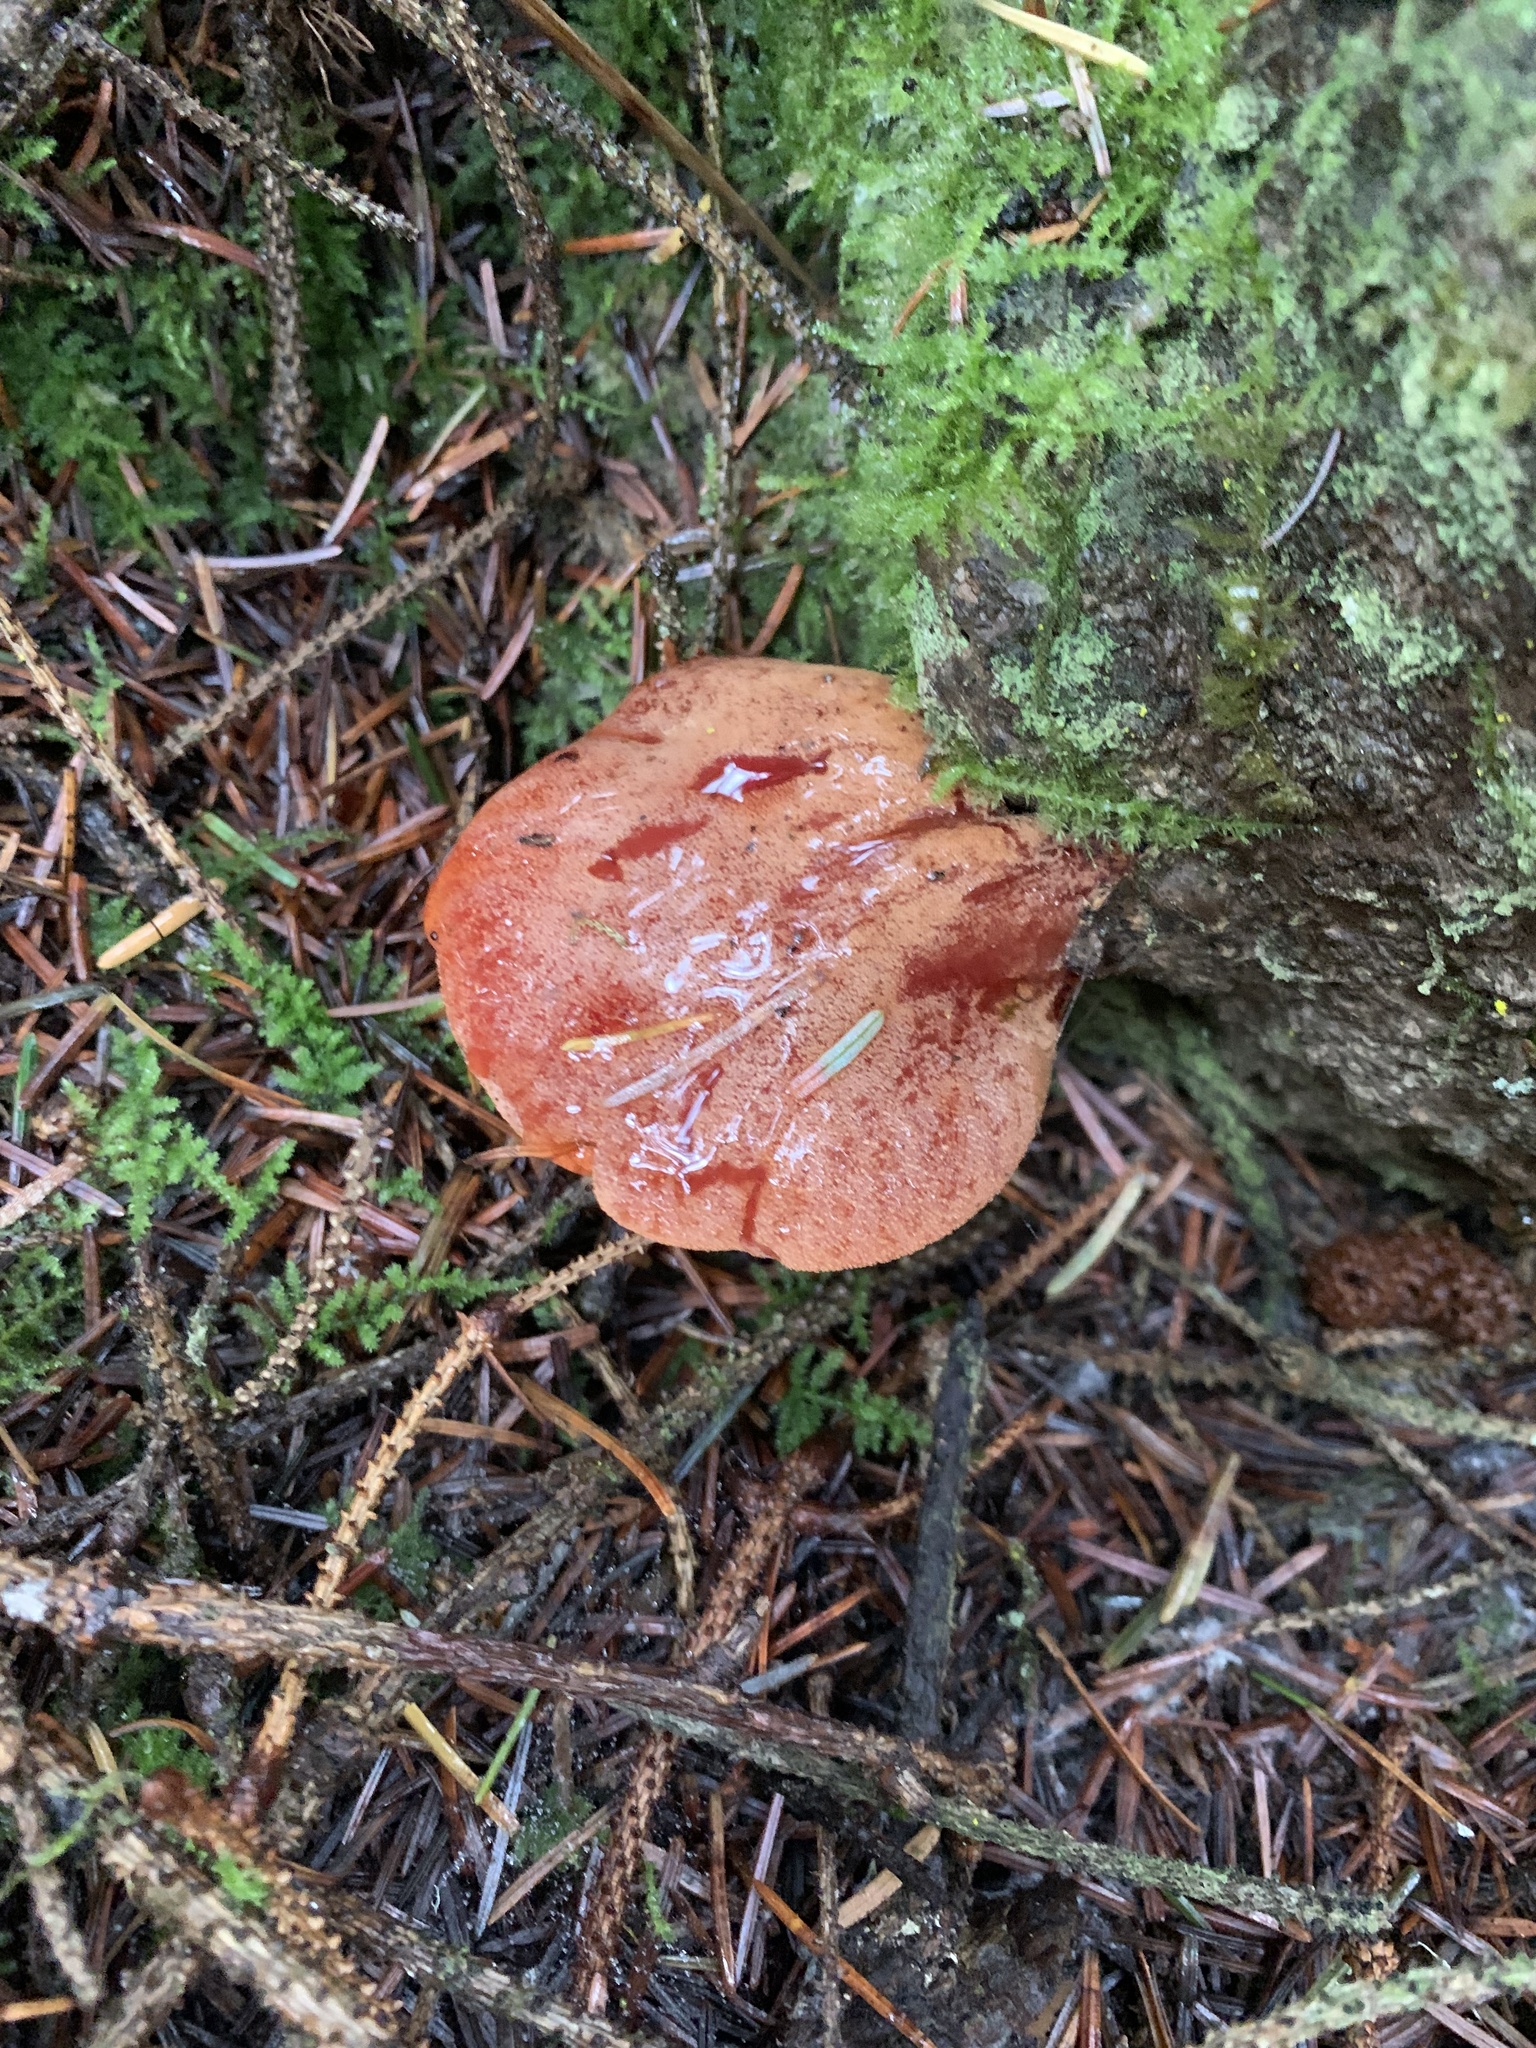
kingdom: Fungi
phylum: Basidiomycota
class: Agaricomycetes
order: Agaricales
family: Fistulinaceae
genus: Fistulina
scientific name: Fistulina hepatica
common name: Beef-steak fungus
